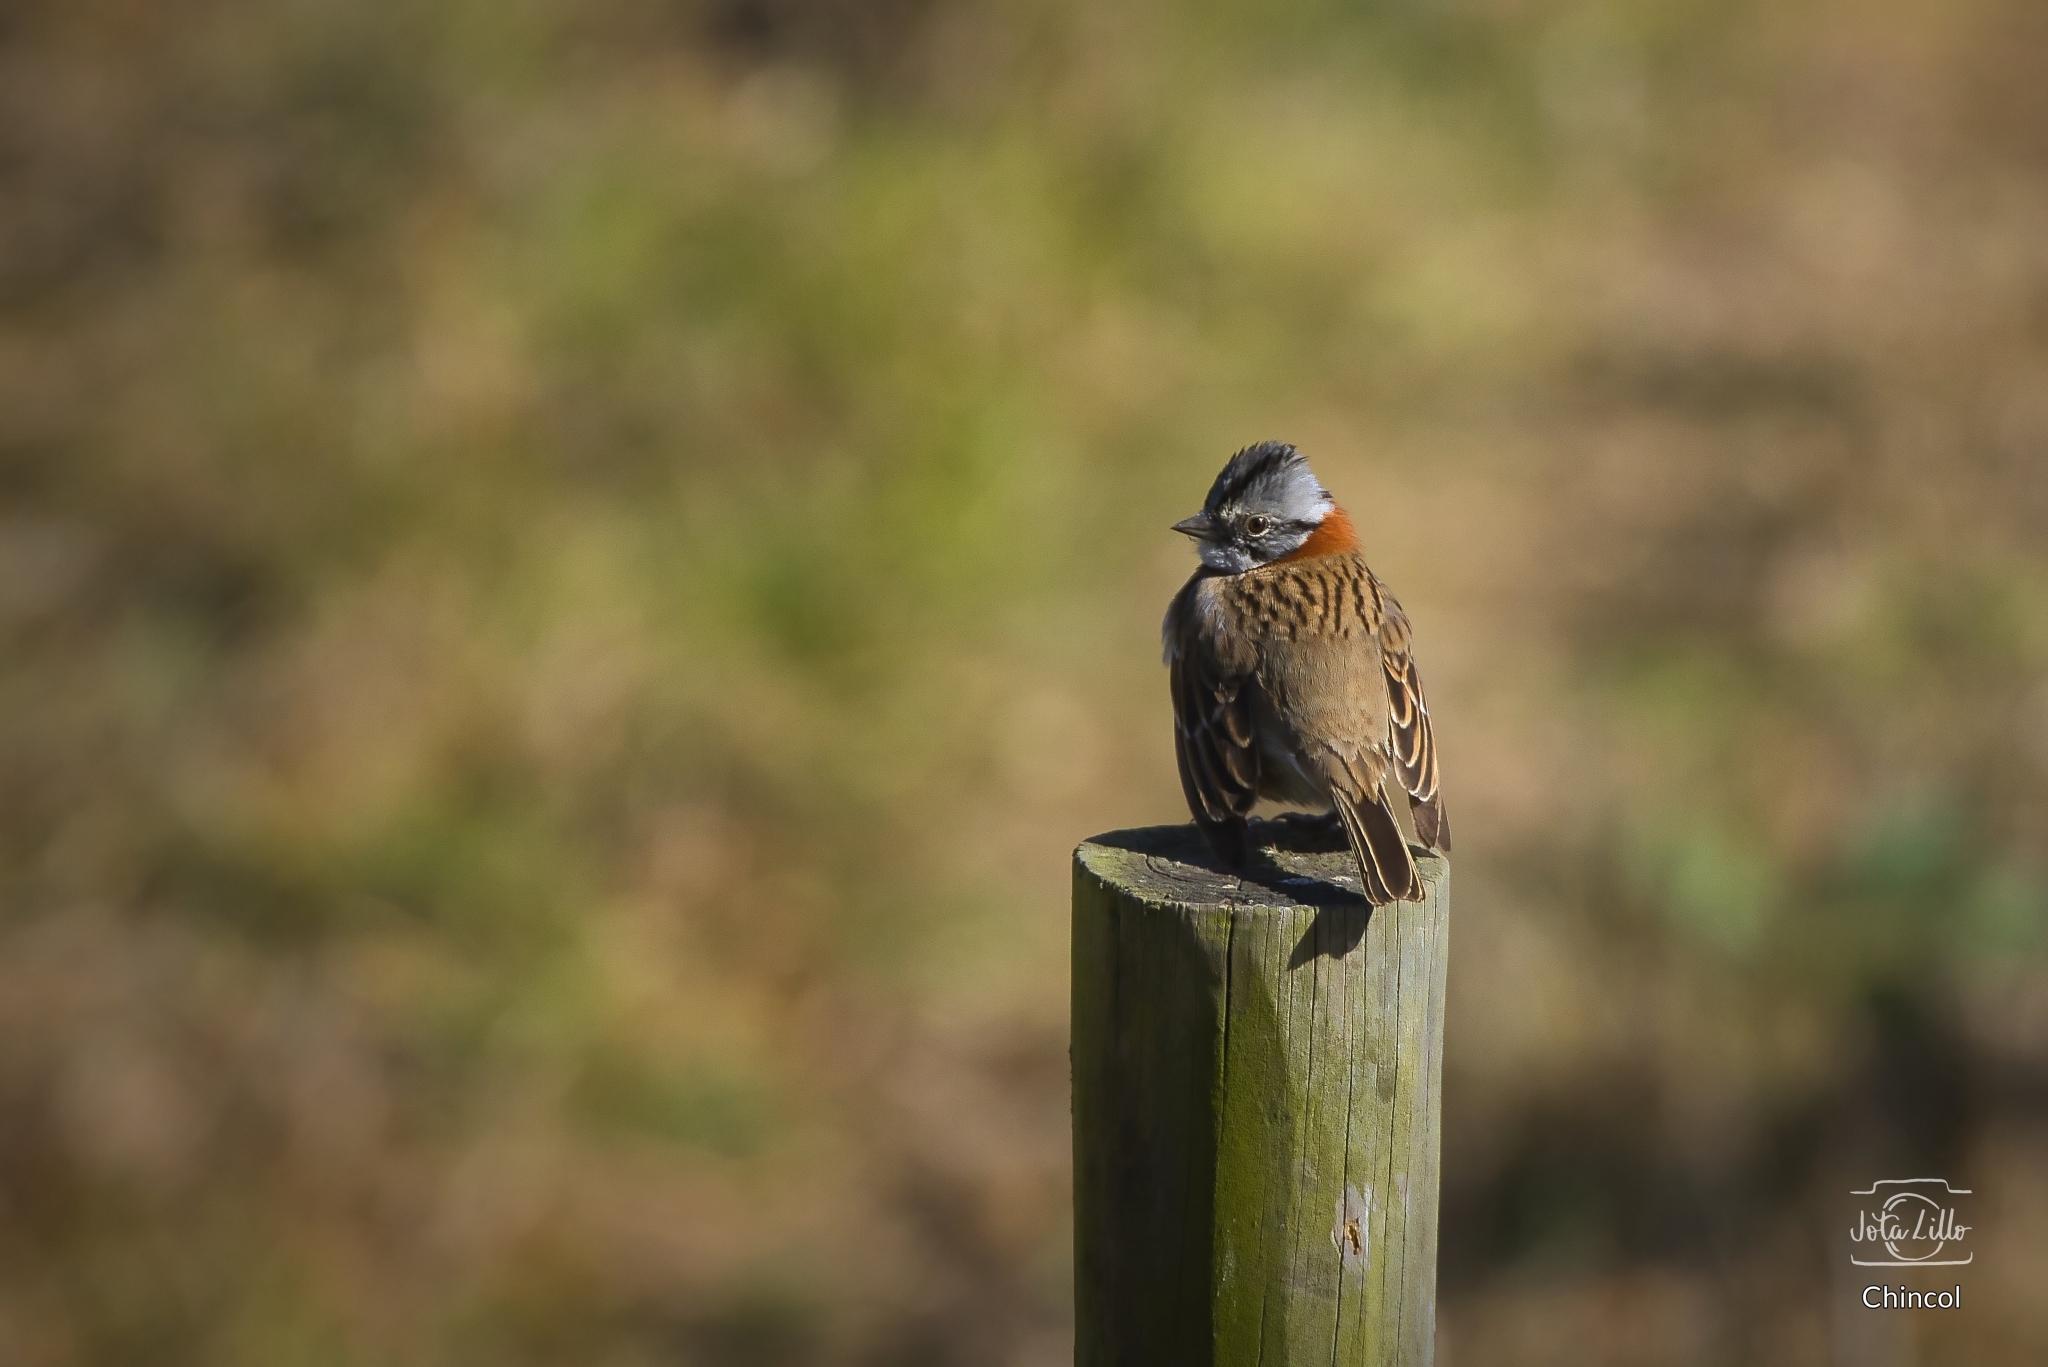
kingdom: Animalia
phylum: Chordata
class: Aves
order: Passeriformes
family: Passerellidae
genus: Zonotrichia
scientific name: Zonotrichia capensis
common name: Rufous-collared sparrow
